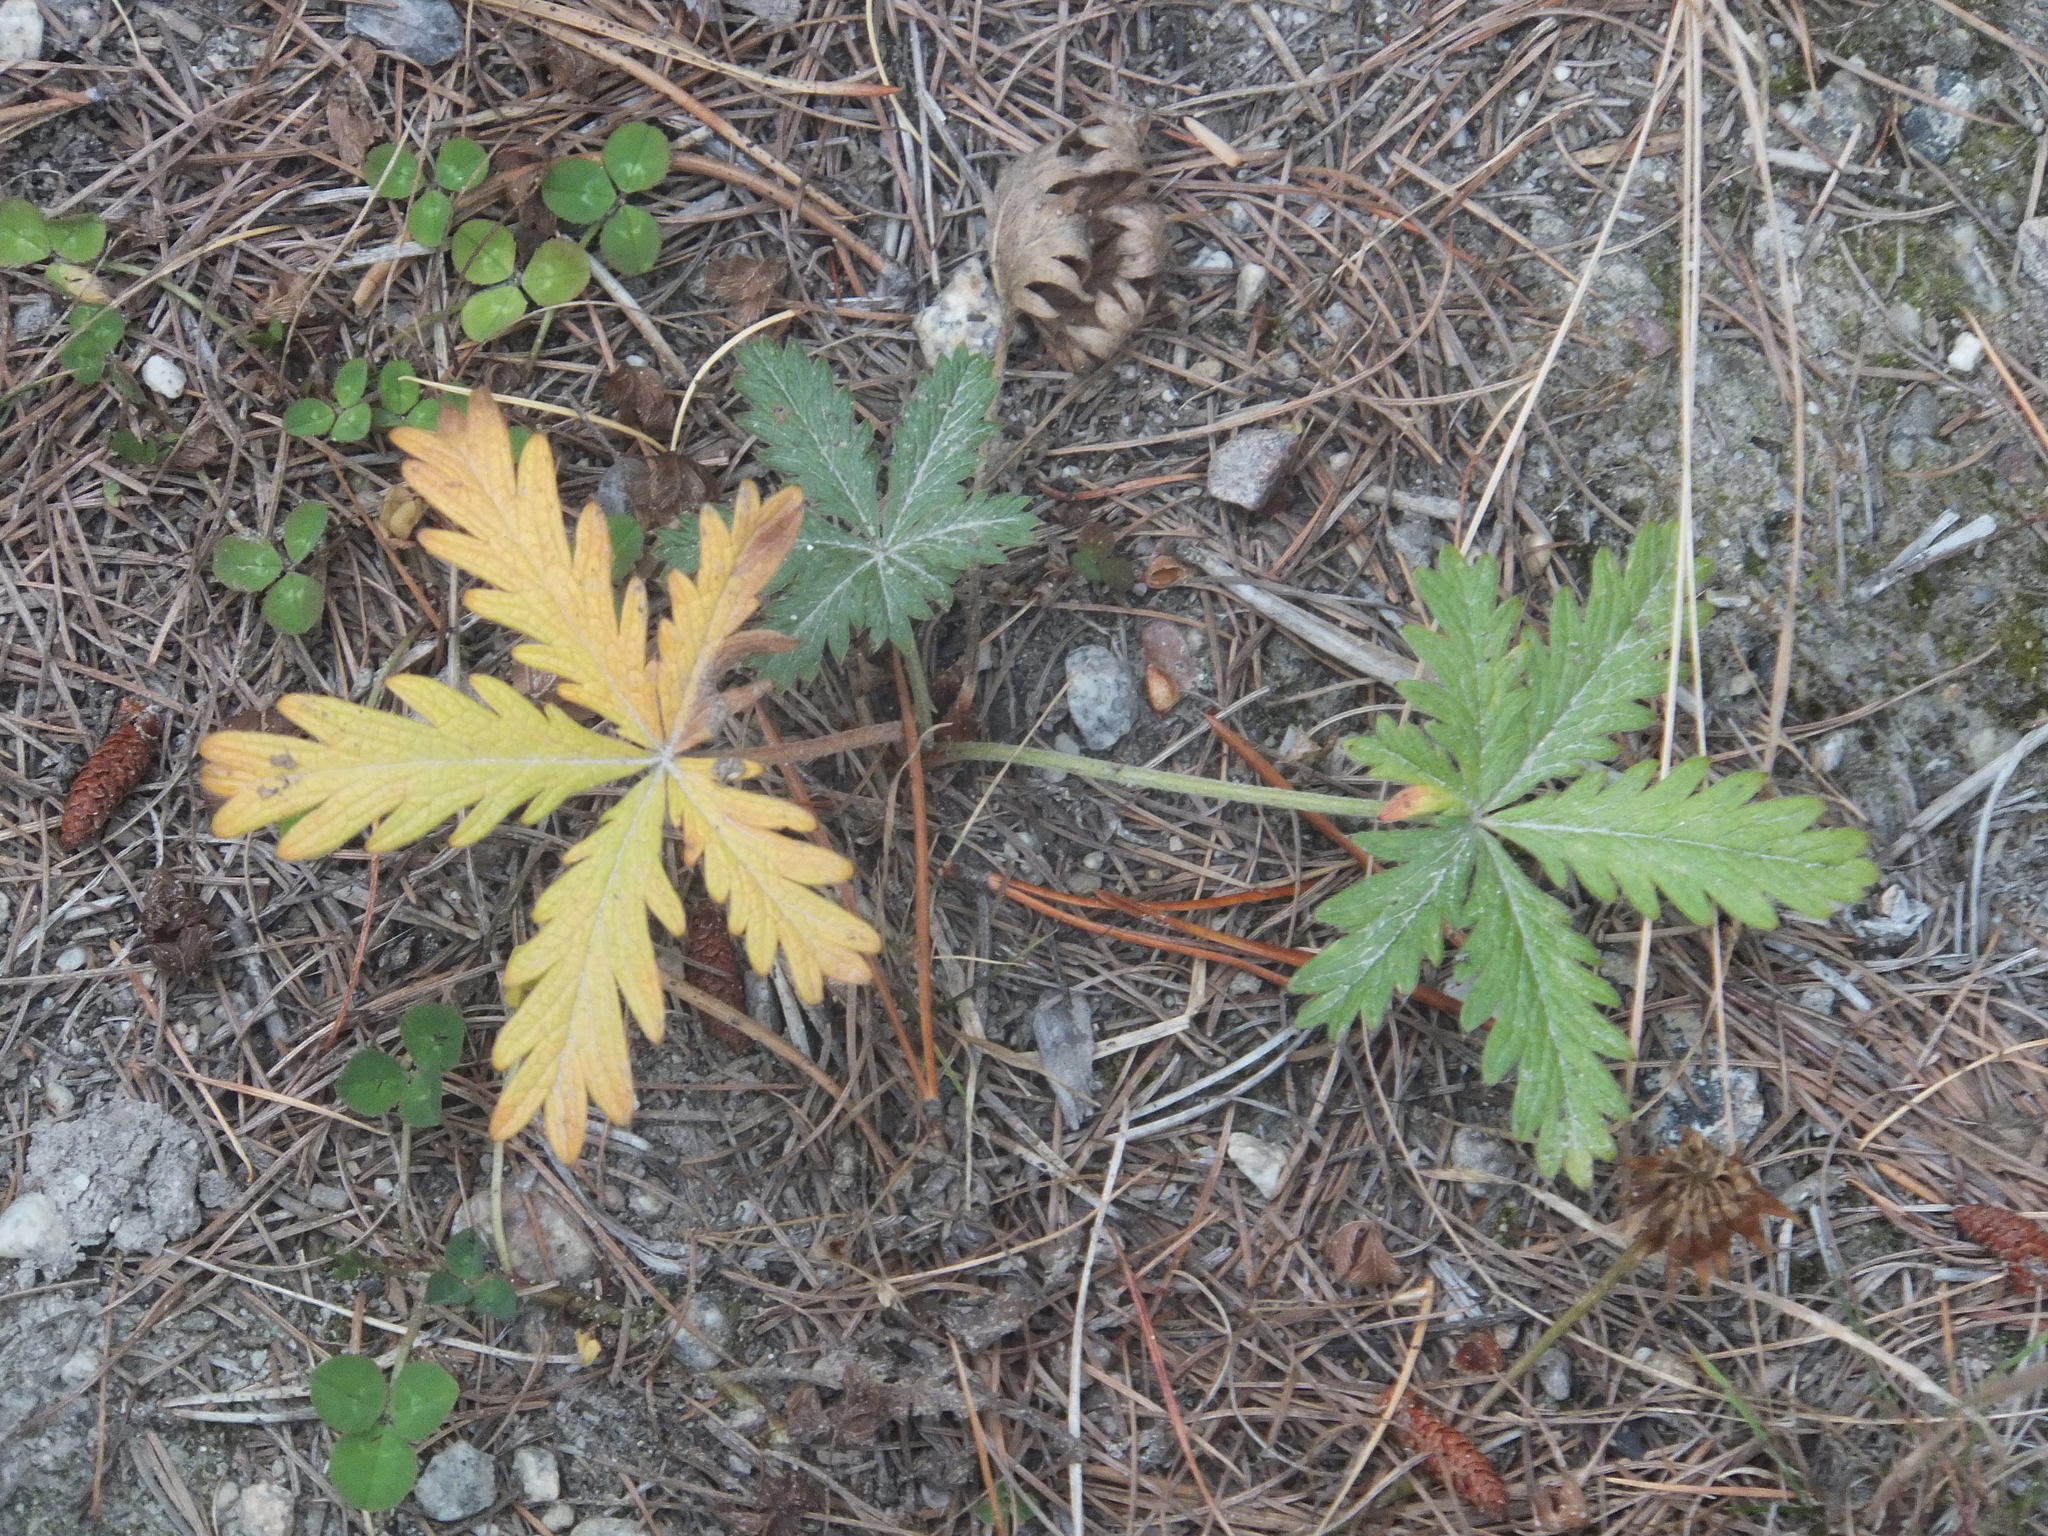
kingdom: Plantae
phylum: Tracheophyta
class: Magnoliopsida
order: Rosales
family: Rosaceae
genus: Potentilla
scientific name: Potentilla recta
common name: Sulphur cinquefoil
